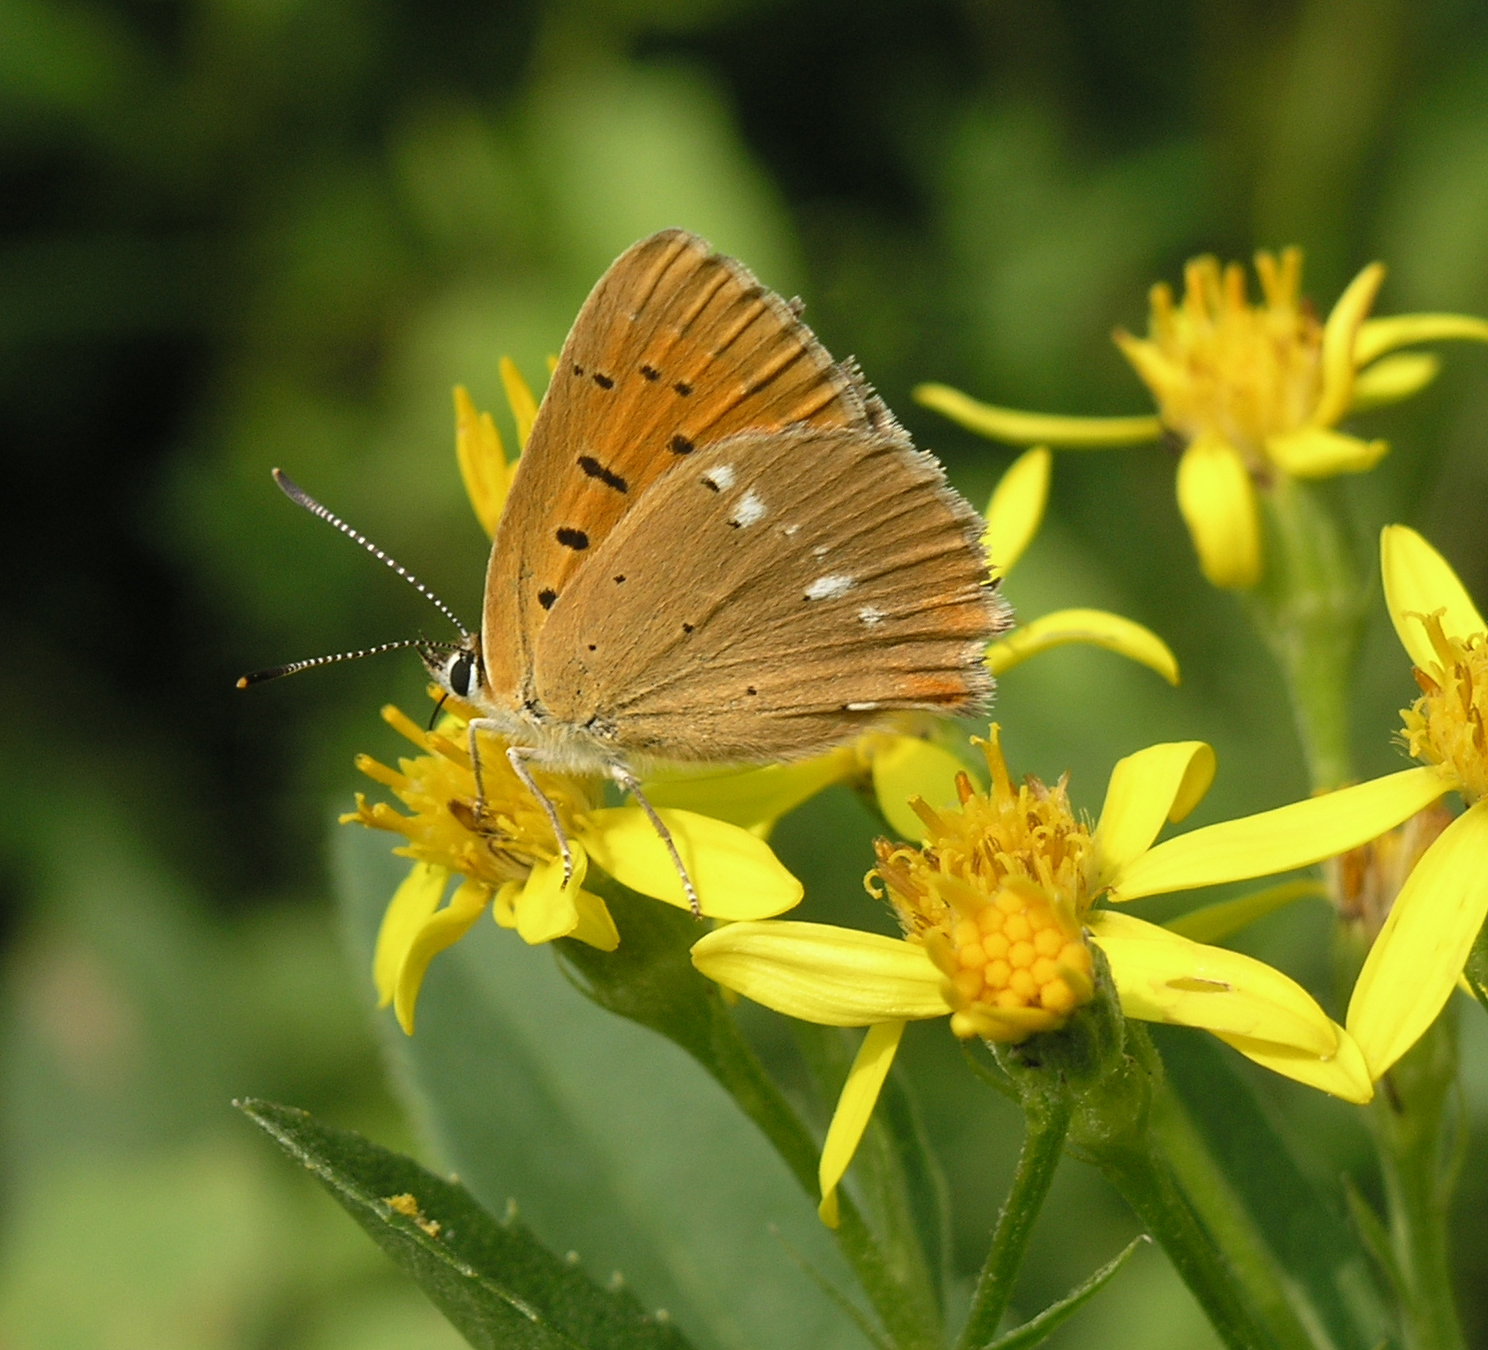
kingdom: Animalia
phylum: Arthropoda
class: Insecta
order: Lepidoptera
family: Lycaenidae
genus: Lycaena
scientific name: Lycaena virgaureae
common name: Scarce copper
